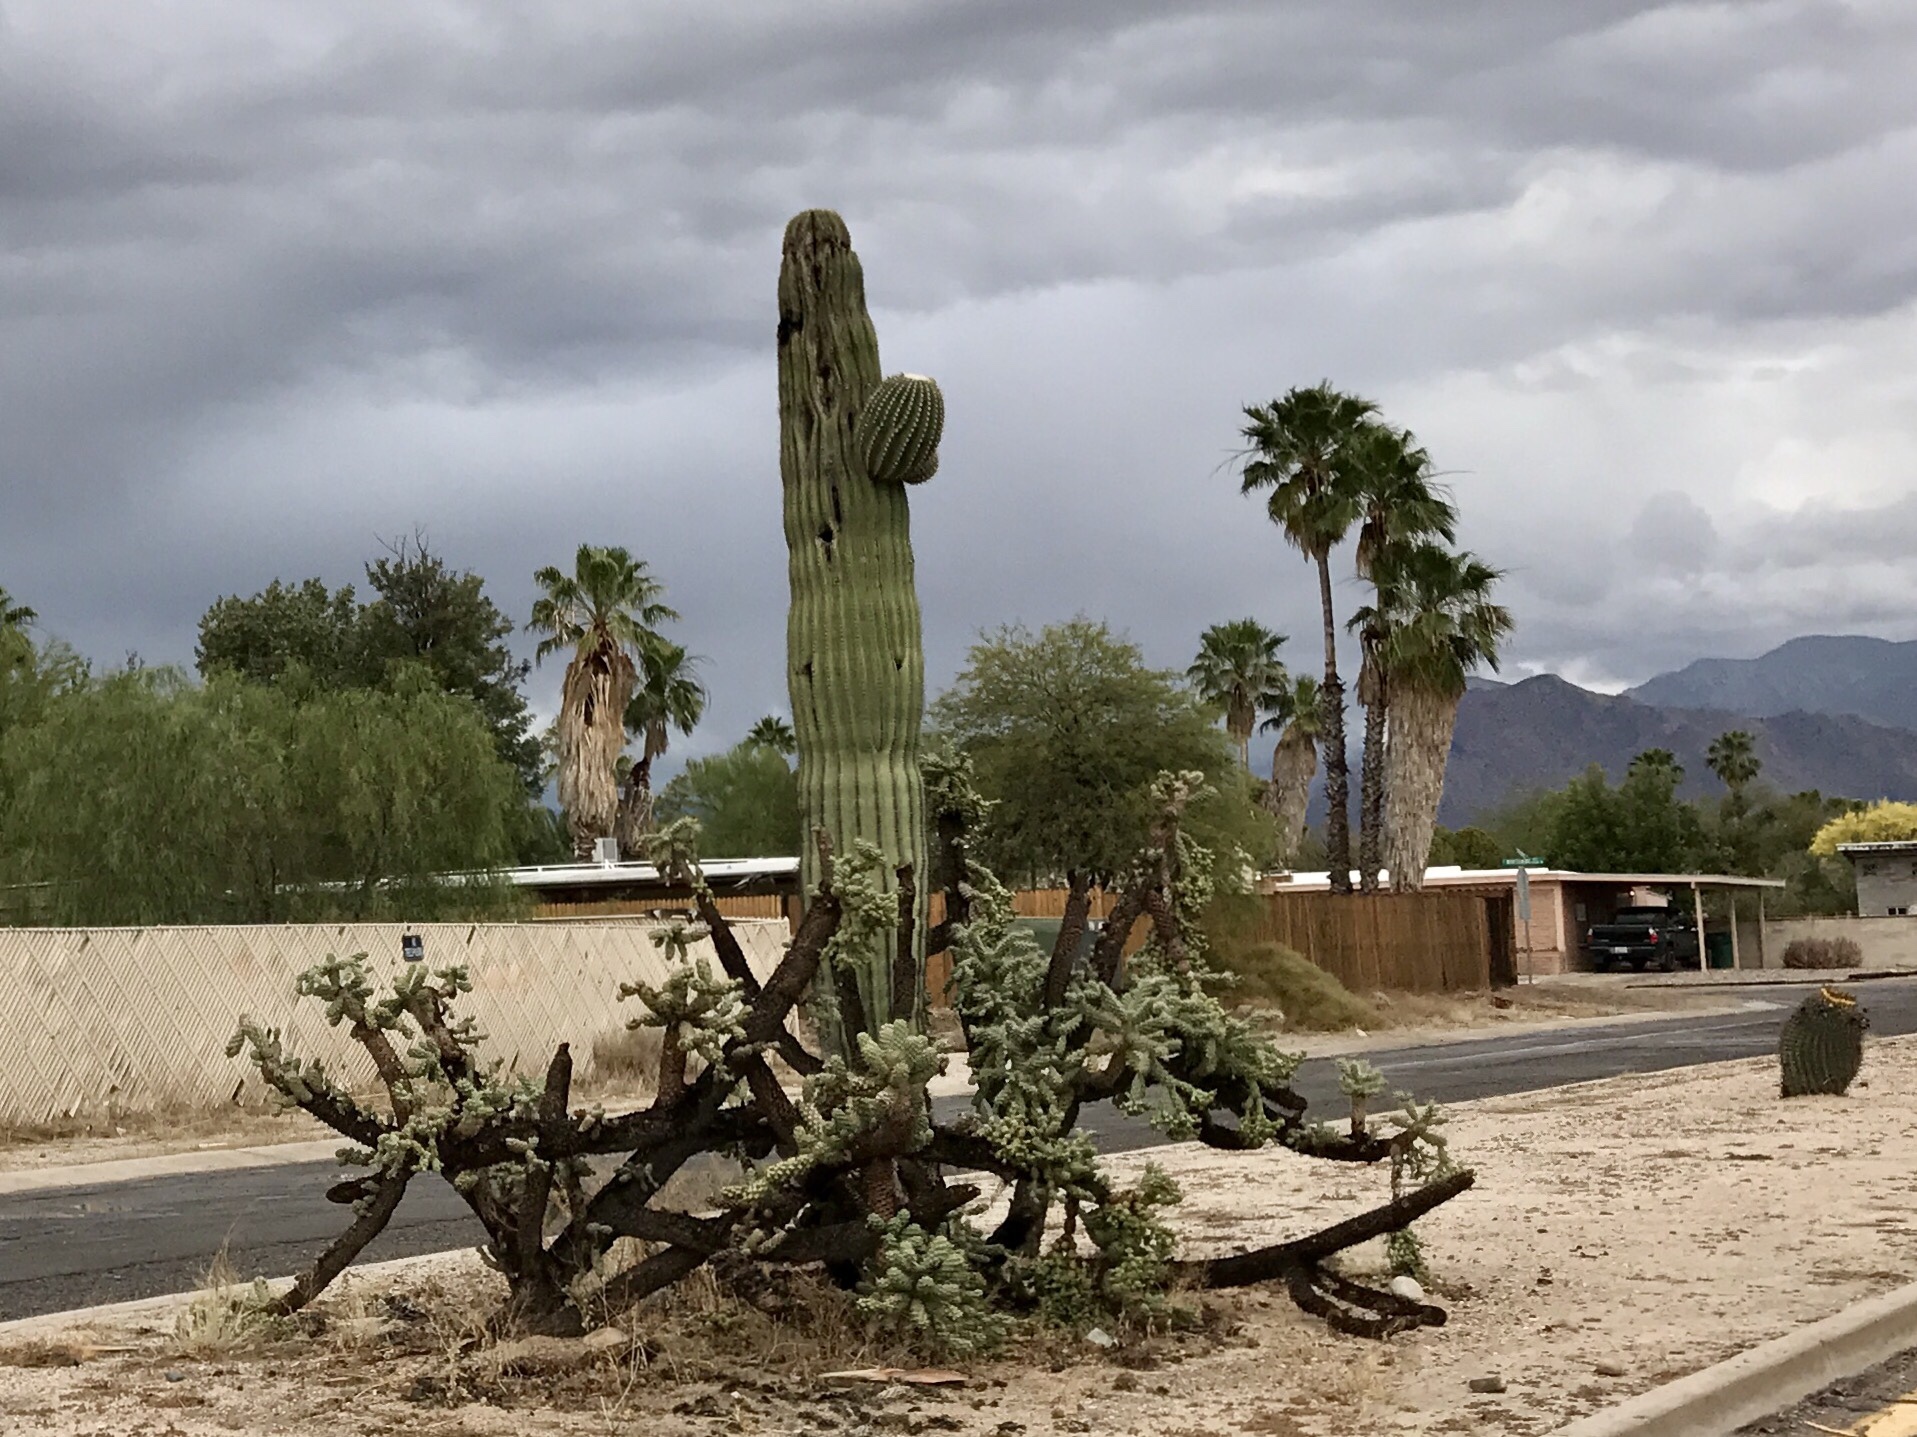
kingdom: Plantae
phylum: Tracheophyta
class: Magnoliopsida
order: Caryophyllales
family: Cactaceae
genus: Cylindropuntia
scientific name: Cylindropuntia fulgida
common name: Jumping cholla
